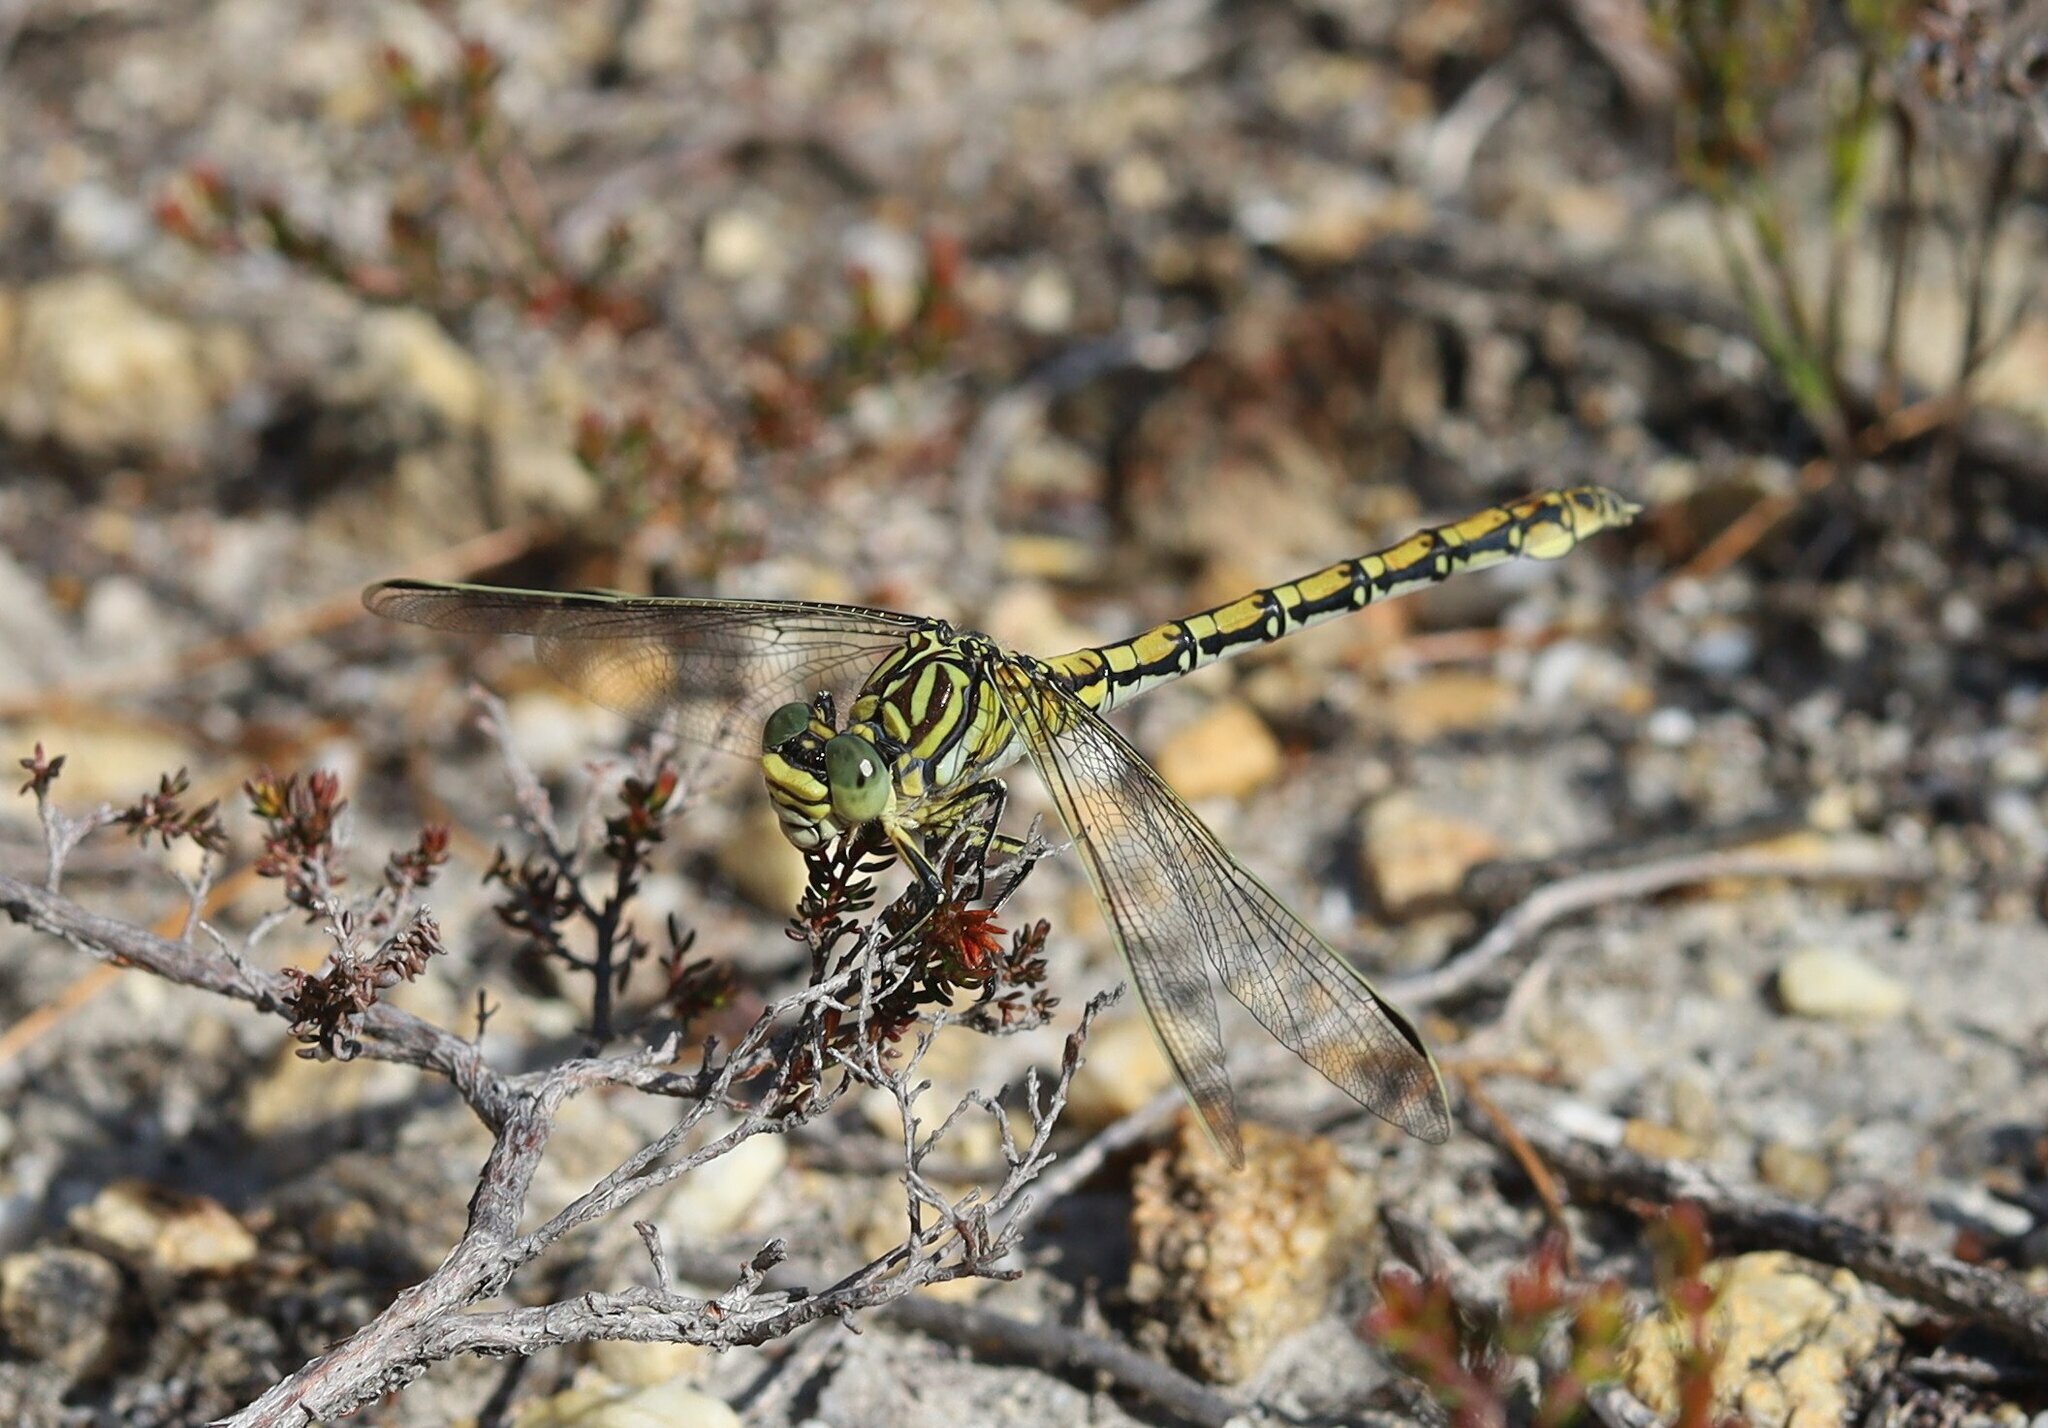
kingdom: Animalia
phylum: Arthropoda
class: Insecta
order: Odonata
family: Gomphidae
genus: Ceratogomphus
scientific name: Ceratogomphus pictus
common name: Common thorntail
